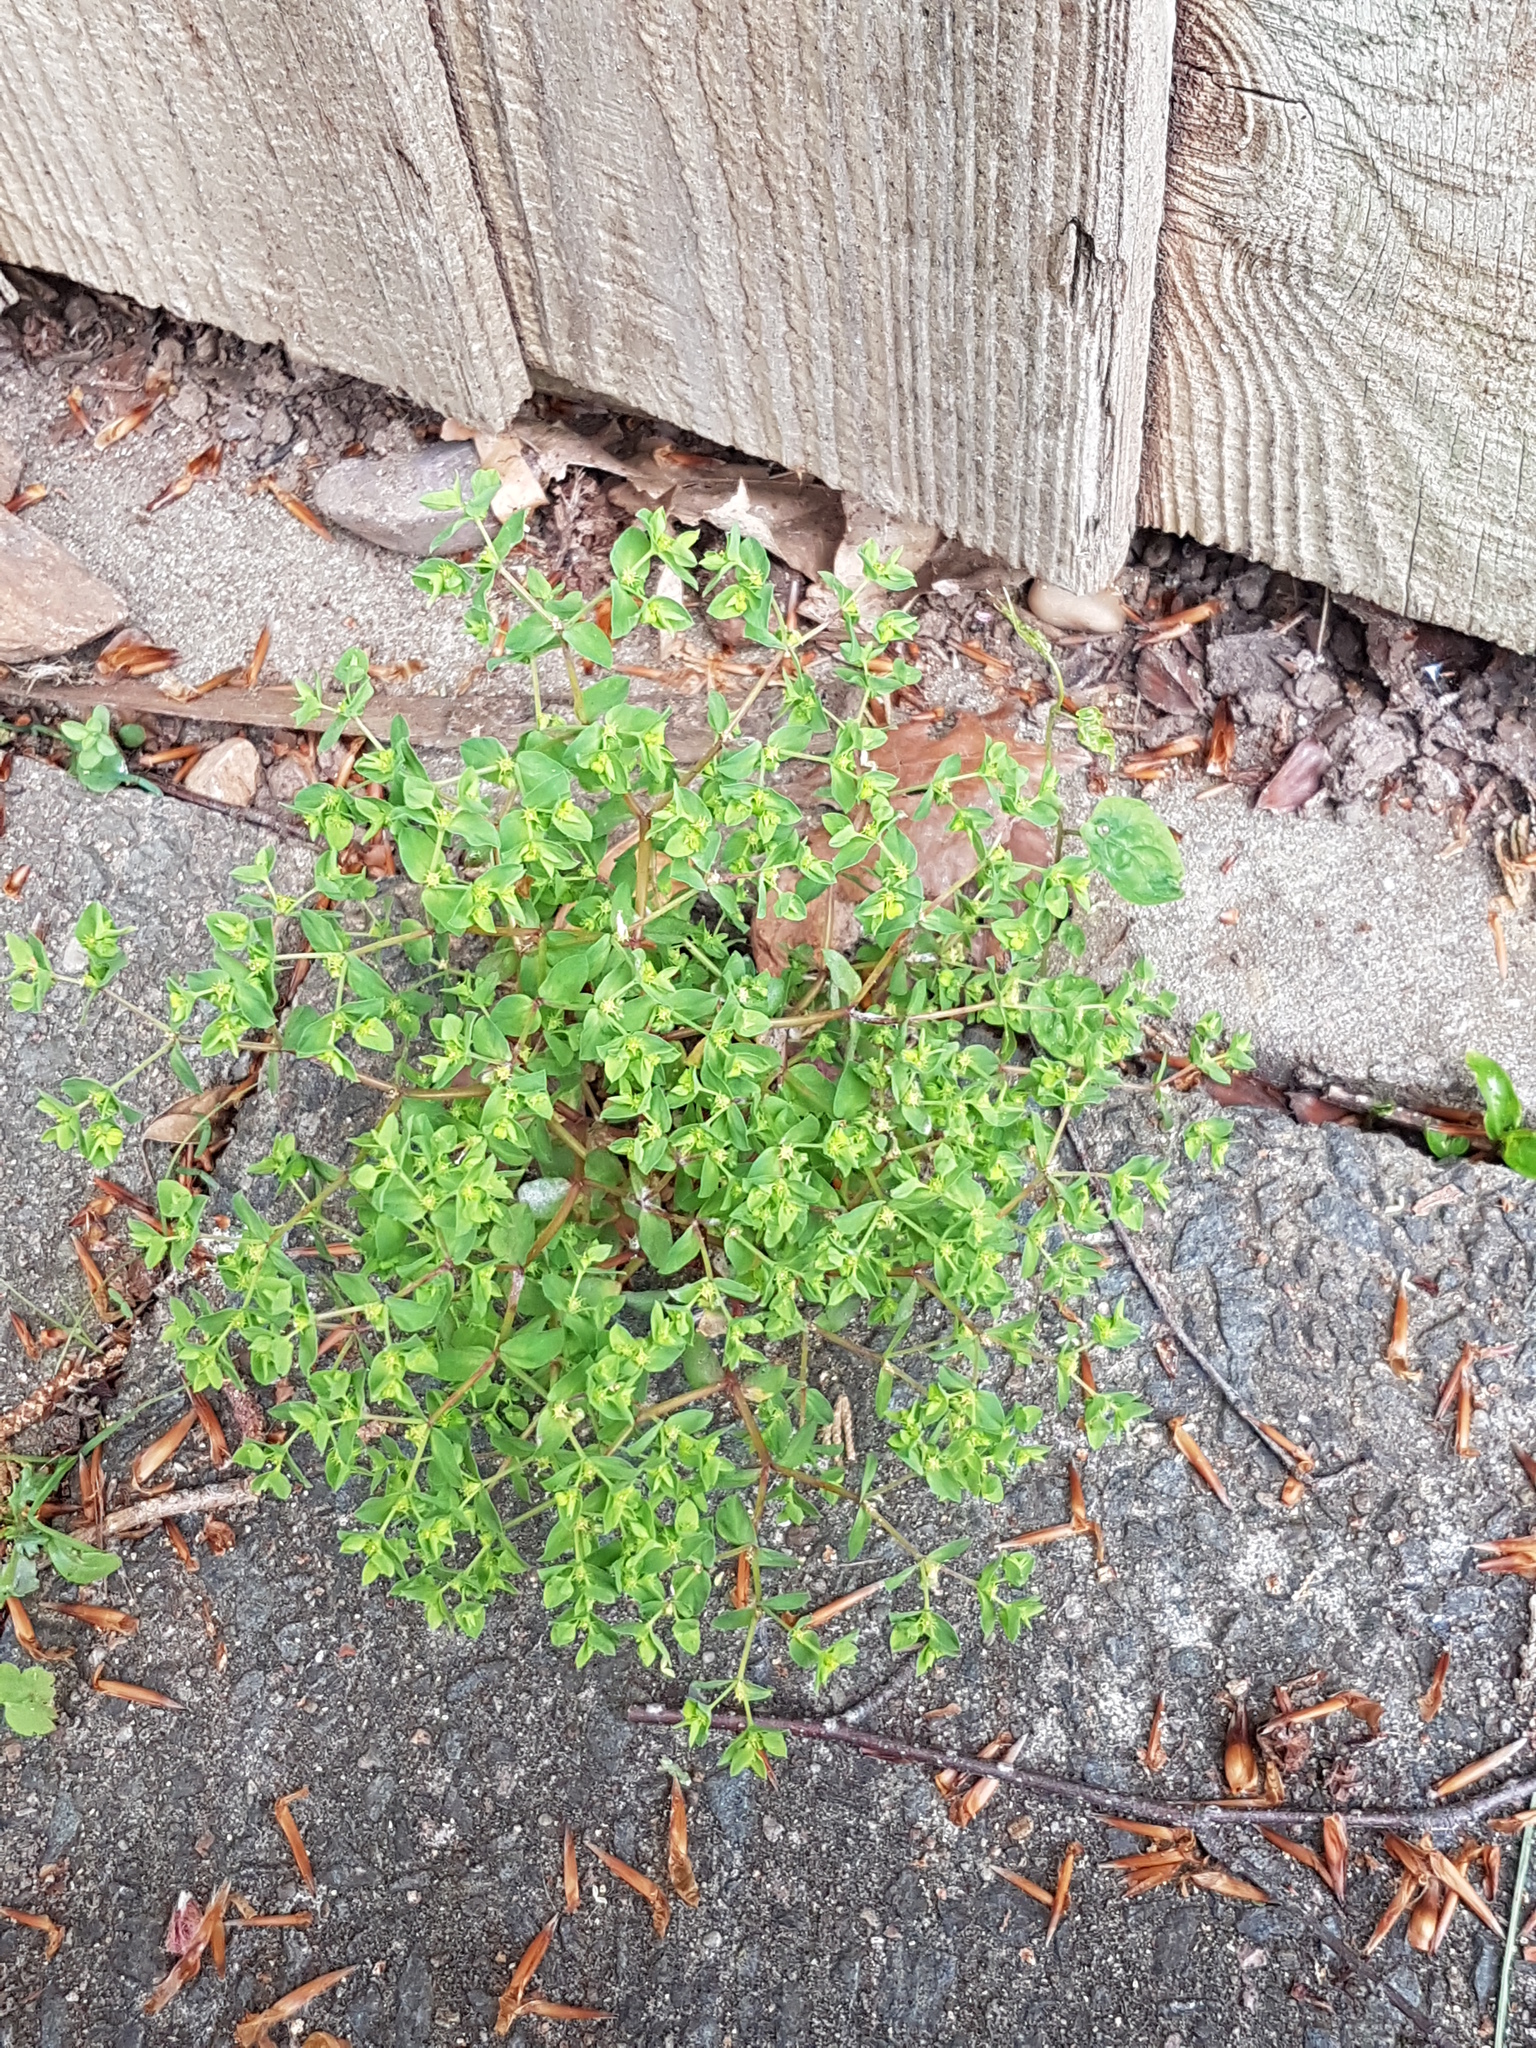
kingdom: Plantae
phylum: Tracheophyta
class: Magnoliopsida
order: Malpighiales
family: Euphorbiaceae
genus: Euphorbia
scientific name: Euphorbia peplus
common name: Petty spurge
